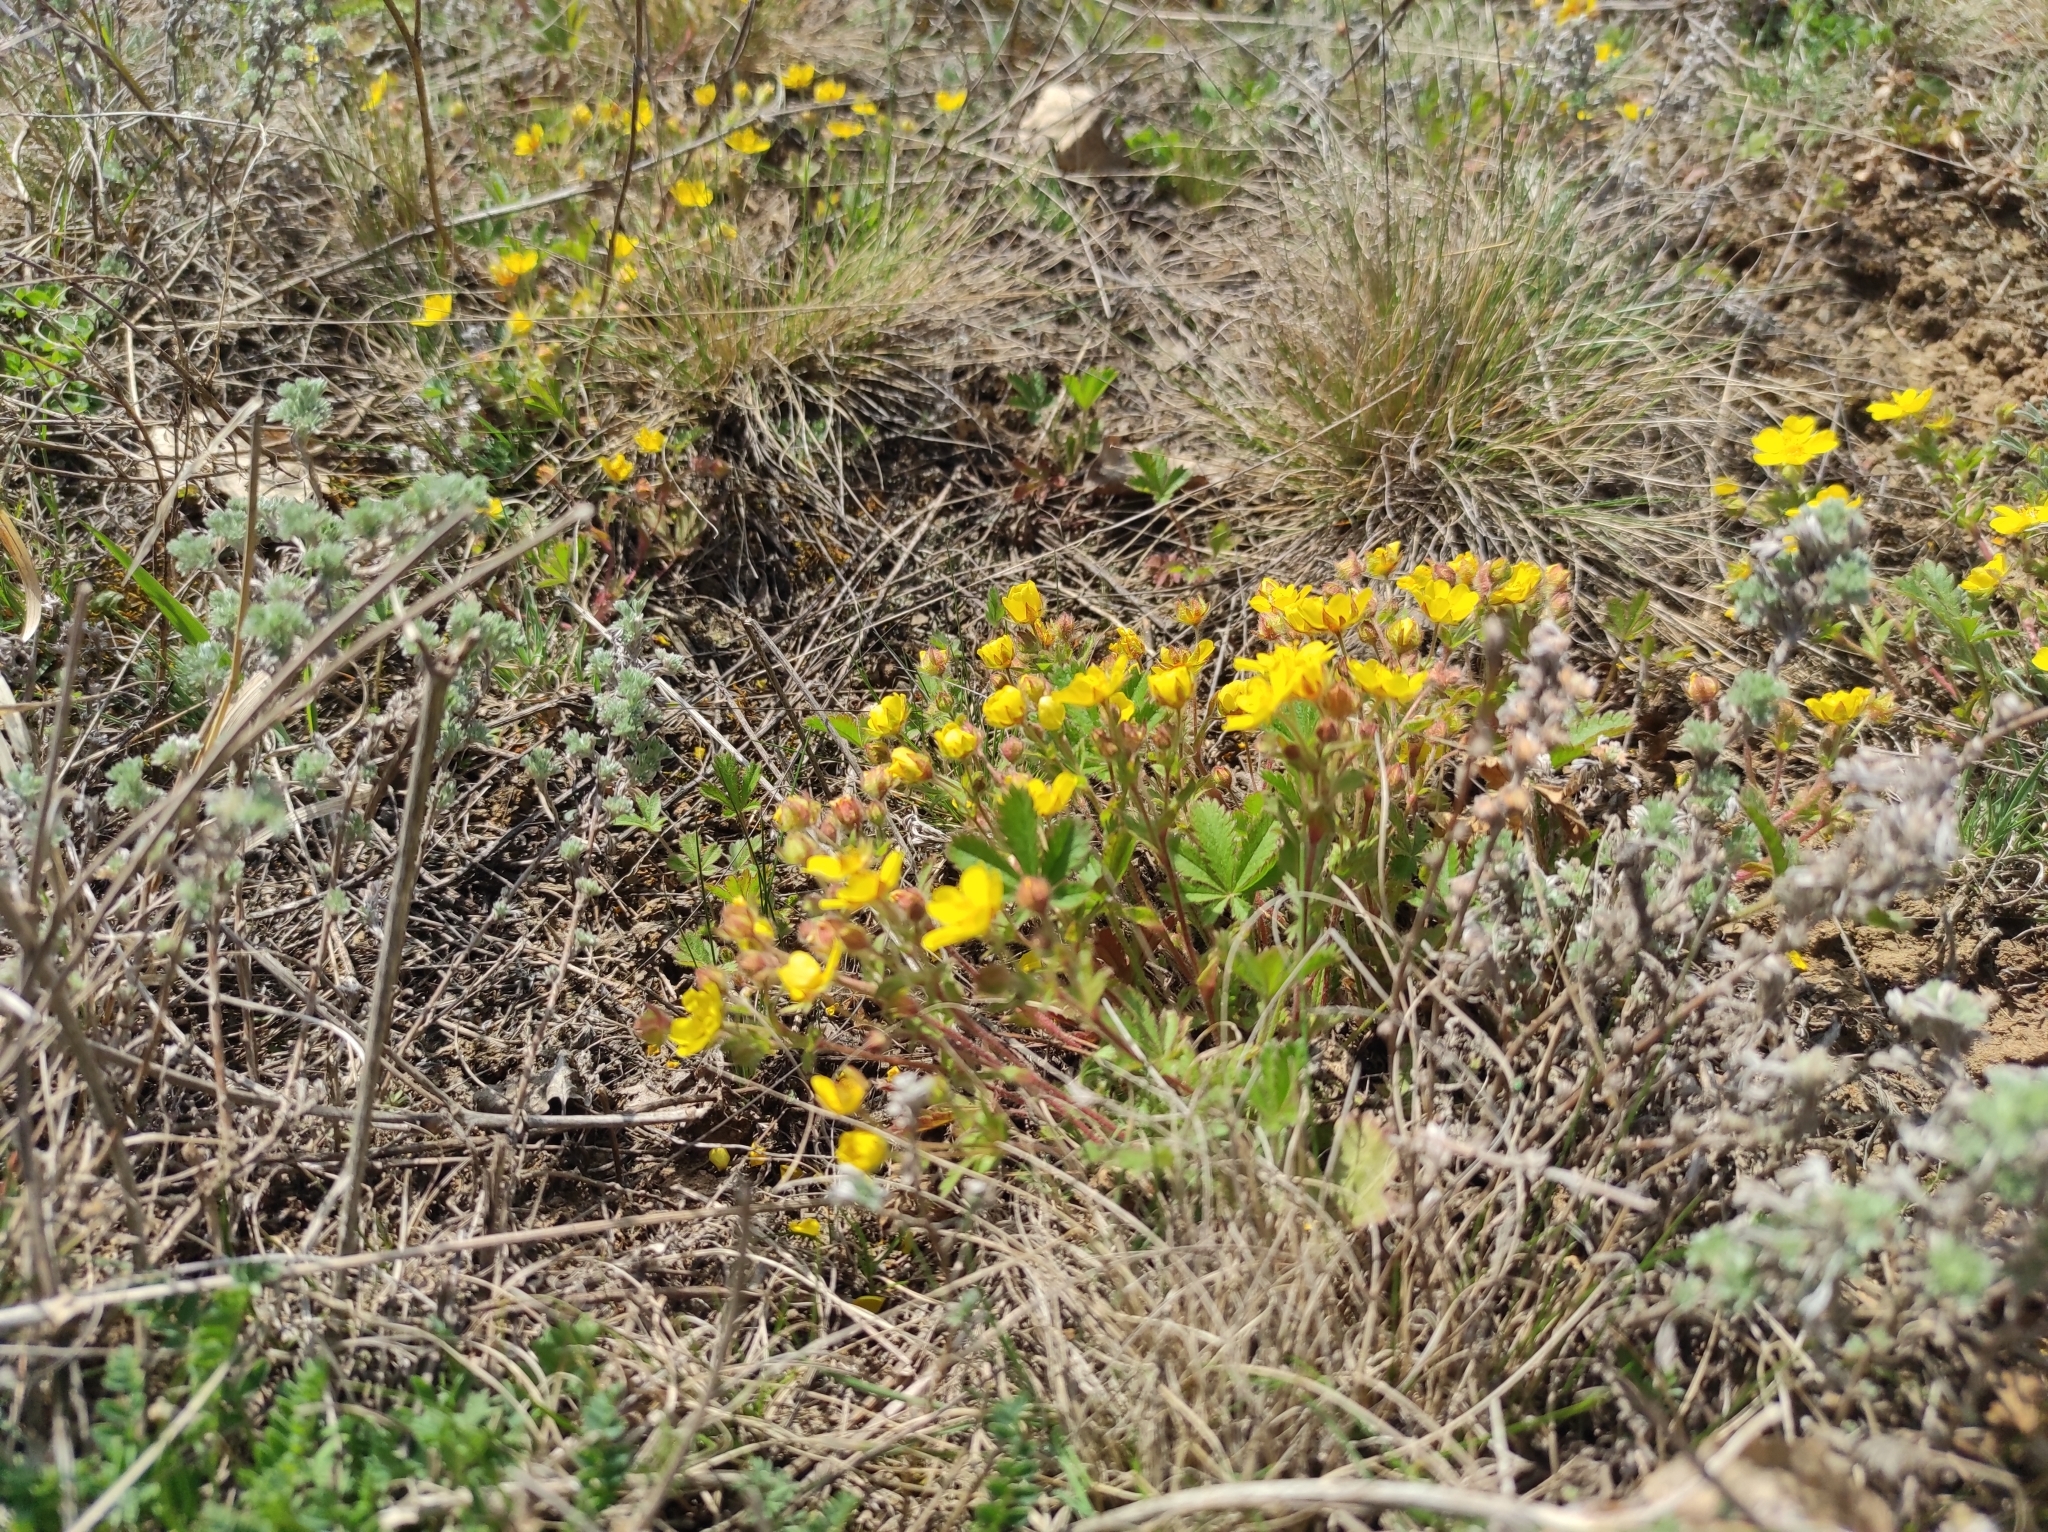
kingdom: Plantae
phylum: Tracheophyta
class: Magnoliopsida
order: Rosales
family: Rosaceae
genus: Potentilla
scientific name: Potentilla humifusa
